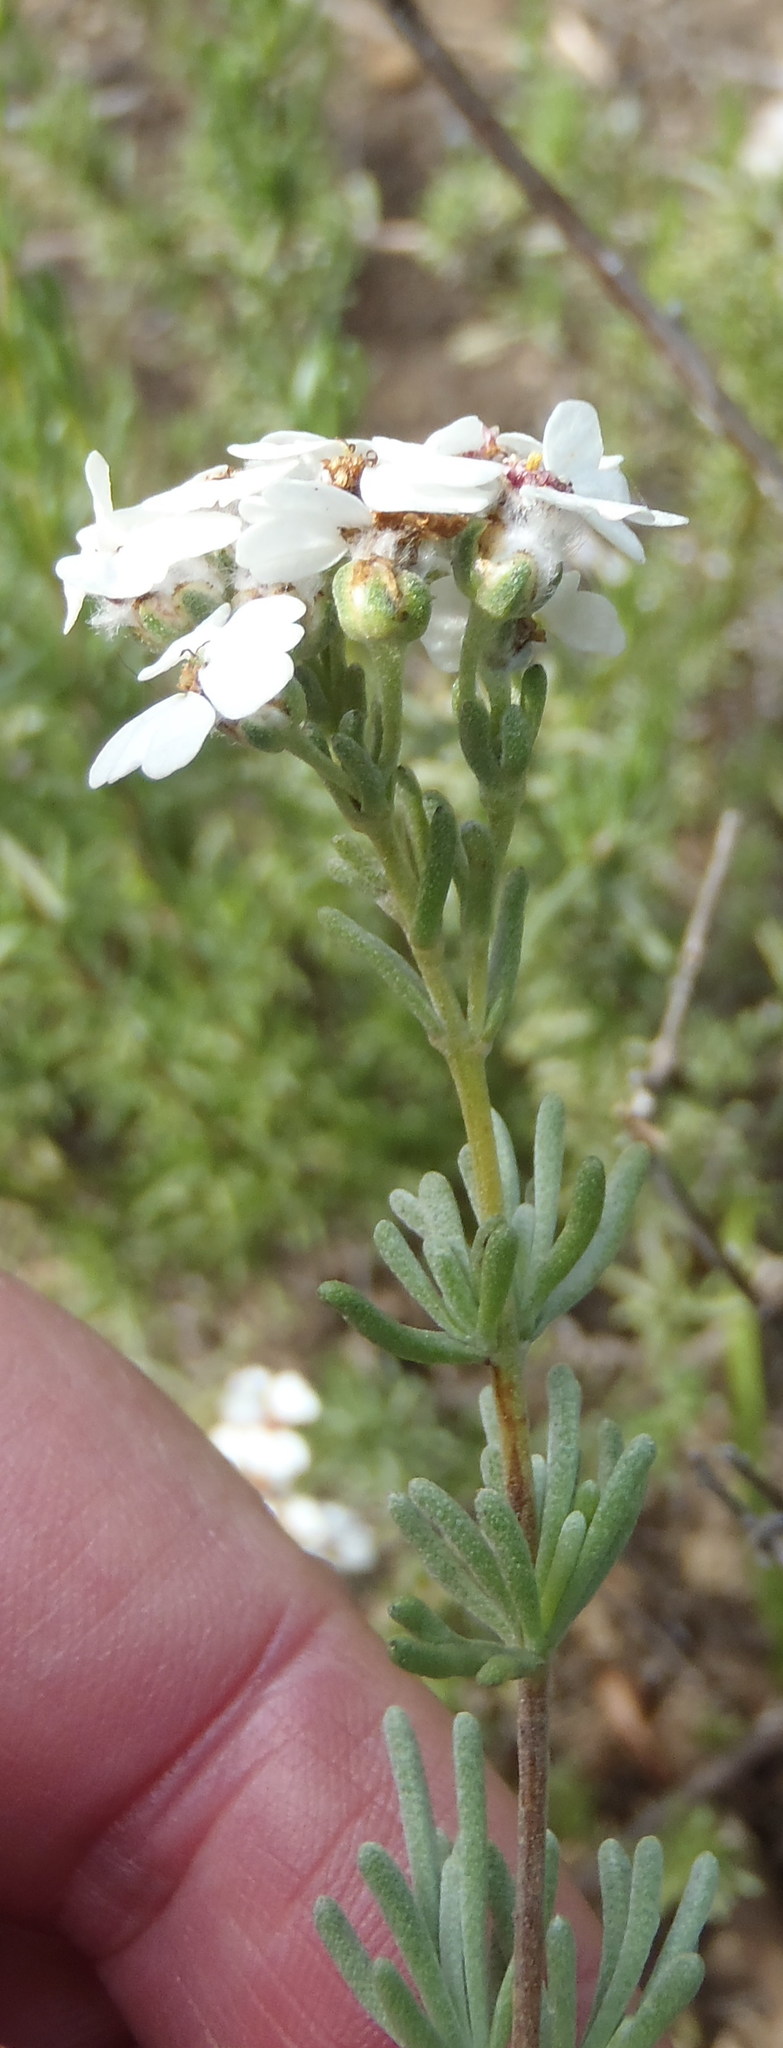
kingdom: Plantae
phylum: Tracheophyta
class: Magnoliopsida
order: Asterales
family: Asteraceae
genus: Eriocephalus
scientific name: Eriocephalus africanus
